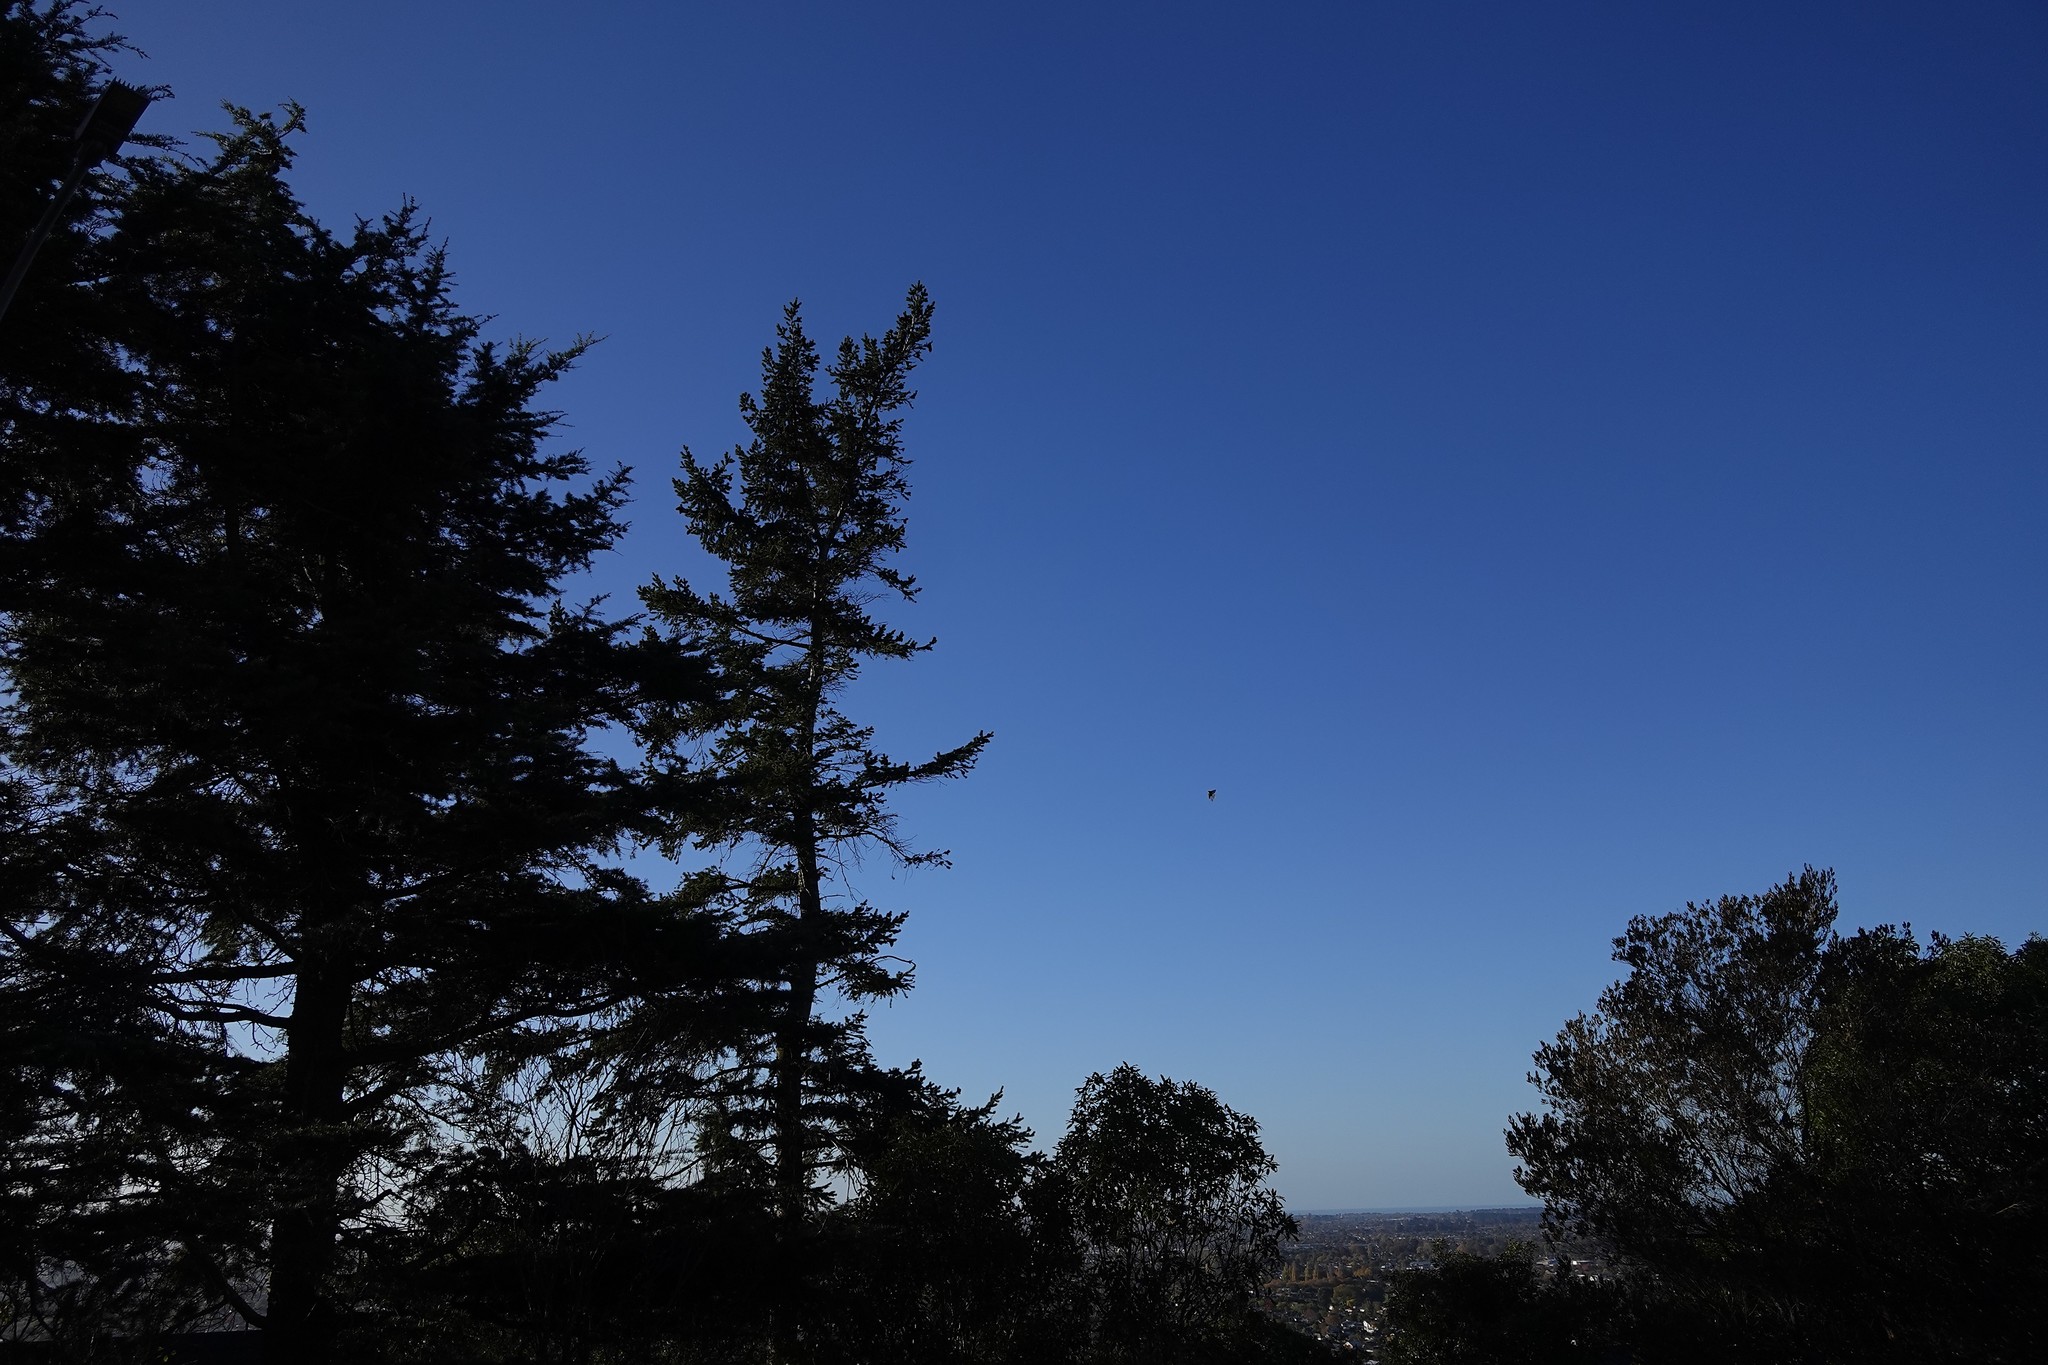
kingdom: Animalia
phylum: Chordata
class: Aves
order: Passeriformes
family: Rhipiduridae
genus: Rhipidura
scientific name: Rhipidura fuliginosa
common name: New zealand fantail
